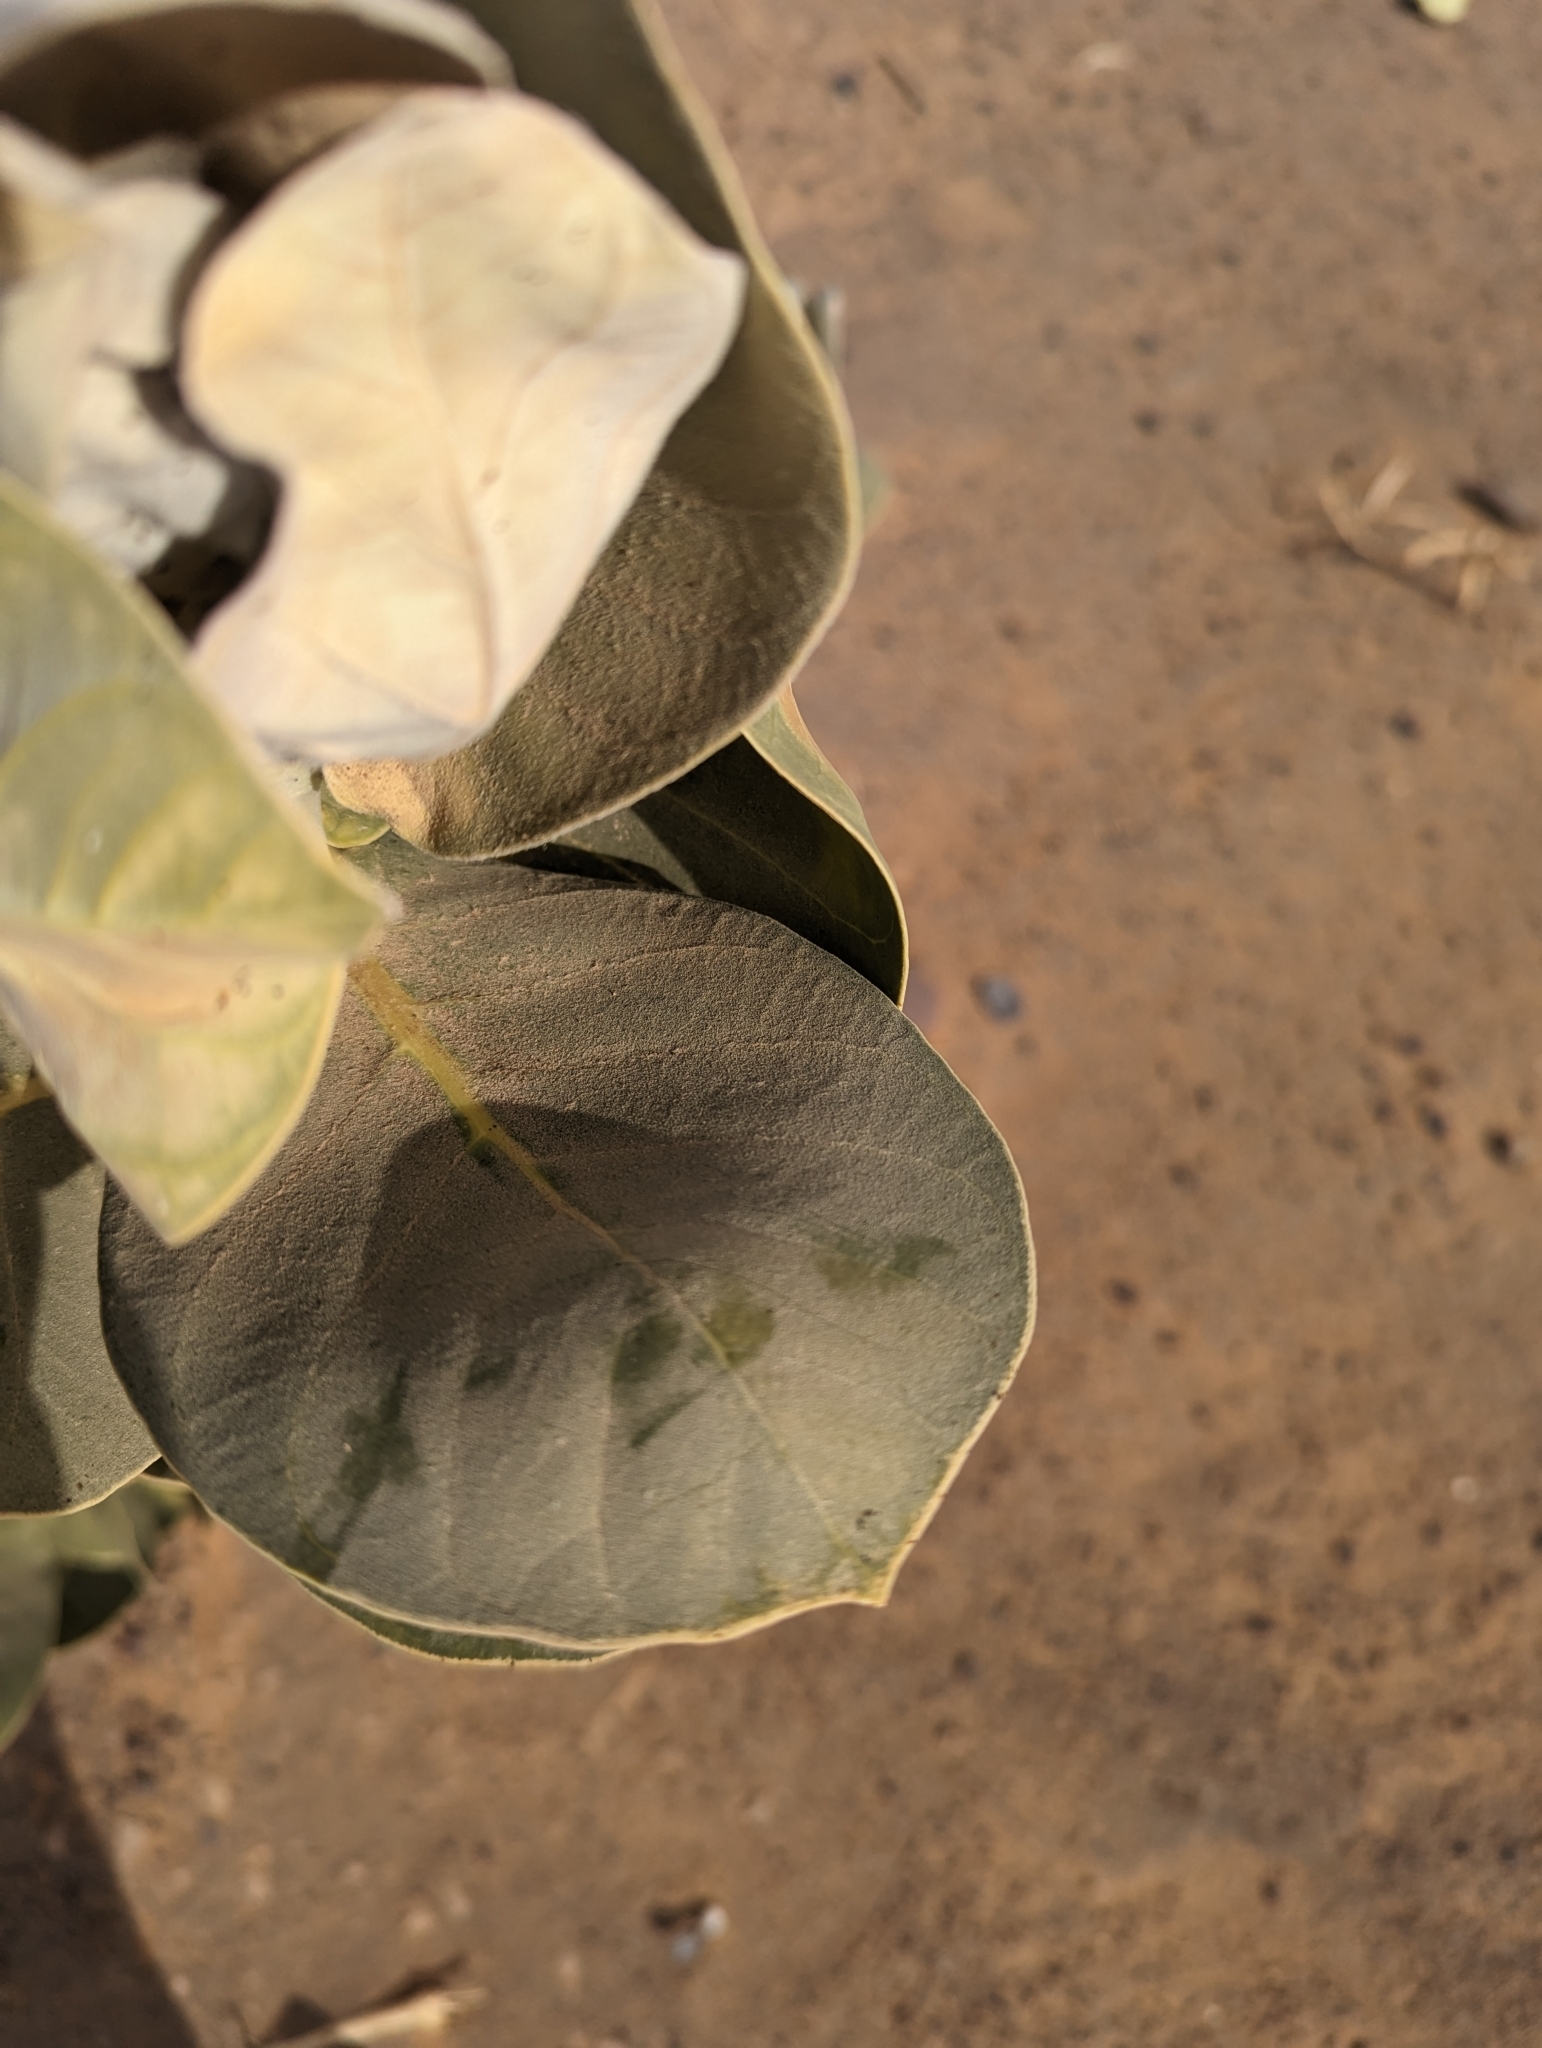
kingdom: Plantae
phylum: Tracheophyta
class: Magnoliopsida
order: Gentianales
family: Apocynaceae
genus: Calotropis
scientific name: Calotropis procera
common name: Roostertree
